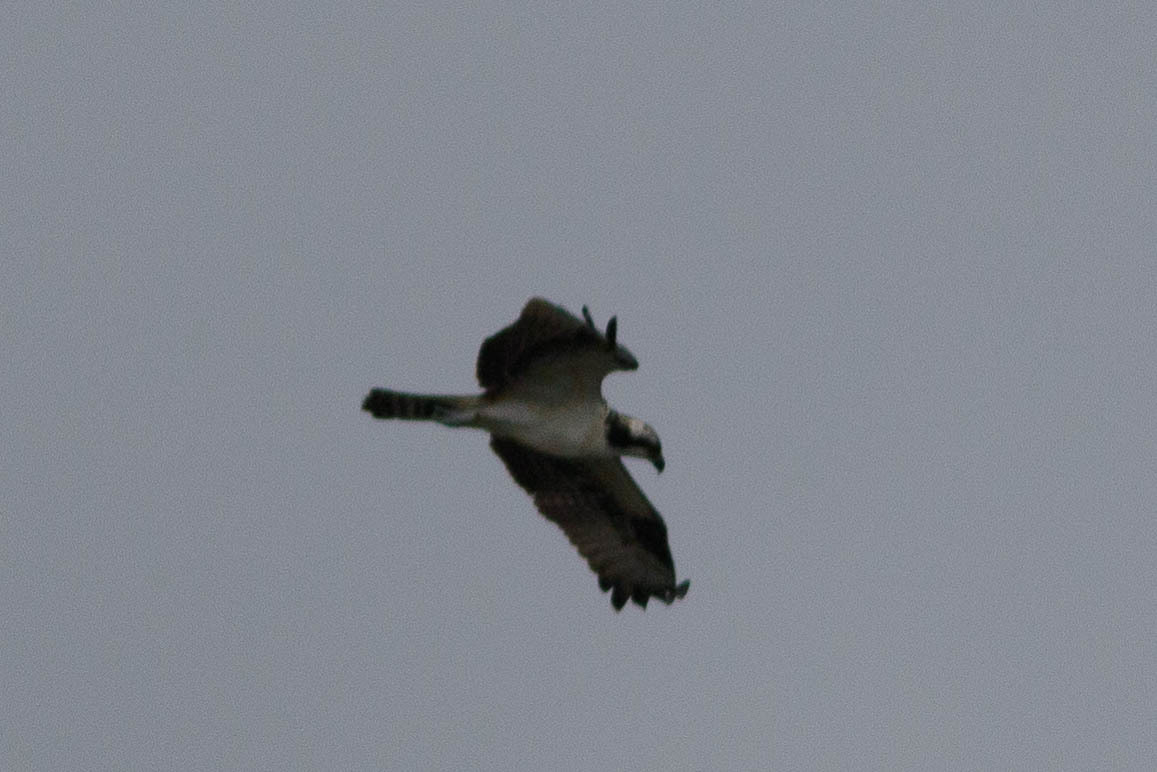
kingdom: Animalia
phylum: Chordata
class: Aves
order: Accipitriformes
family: Pandionidae
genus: Pandion
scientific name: Pandion haliaetus
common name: Osprey
